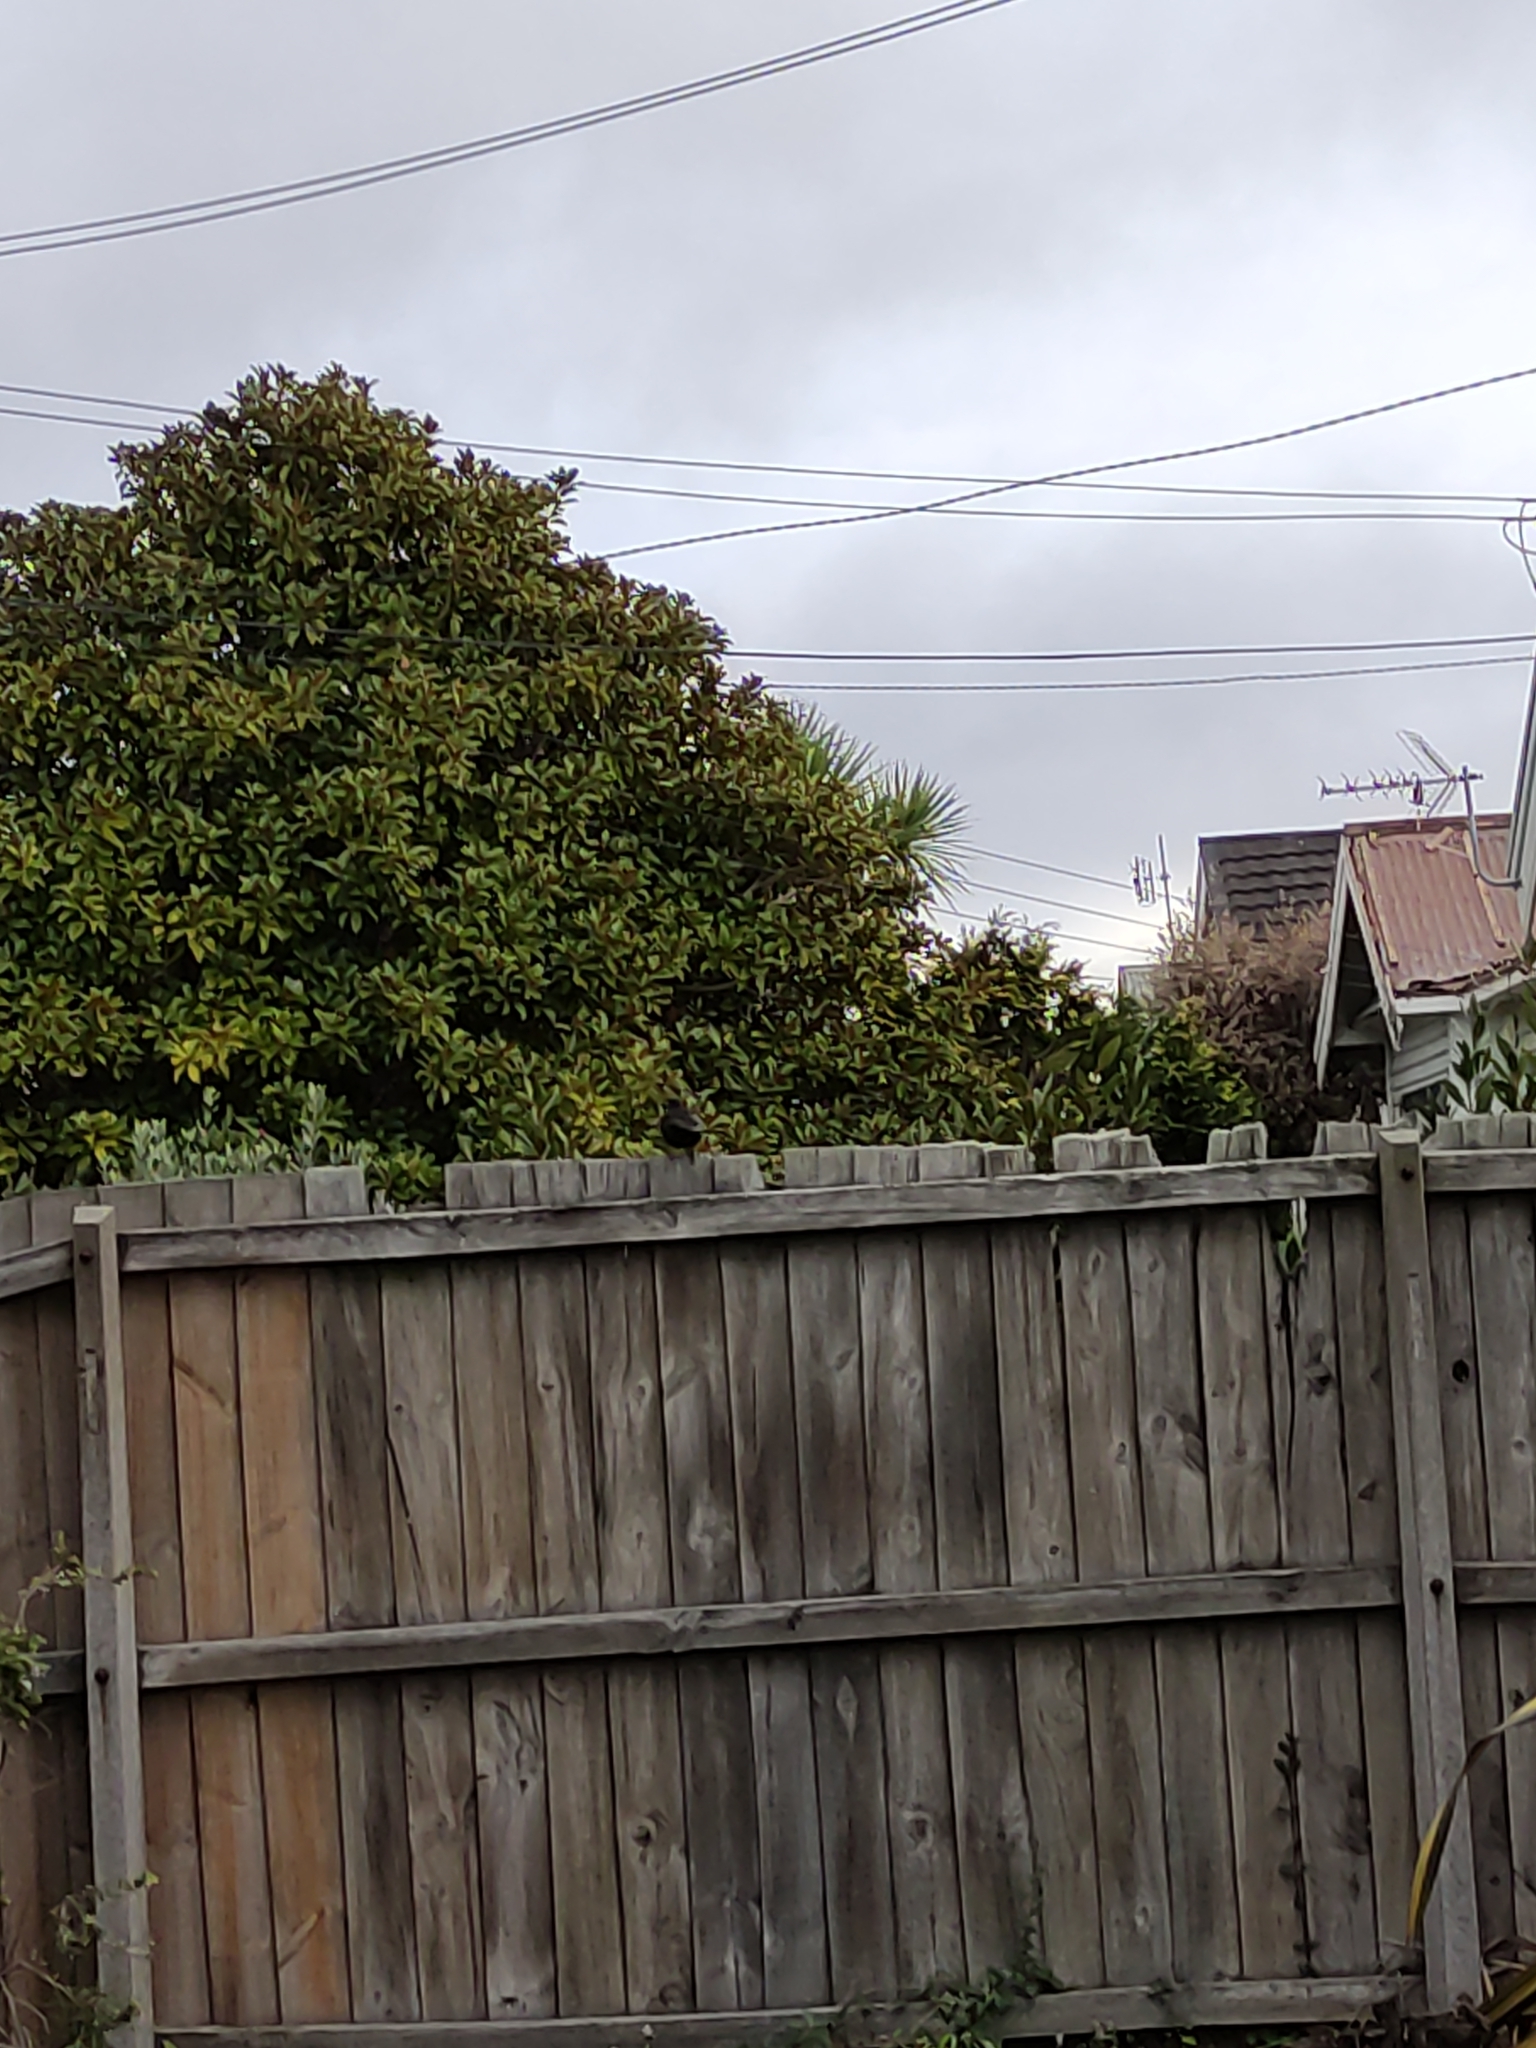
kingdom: Animalia
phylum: Chordata
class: Aves
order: Passeriformes
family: Turdidae
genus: Turdus
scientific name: Turdus merula
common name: Common blackbird
